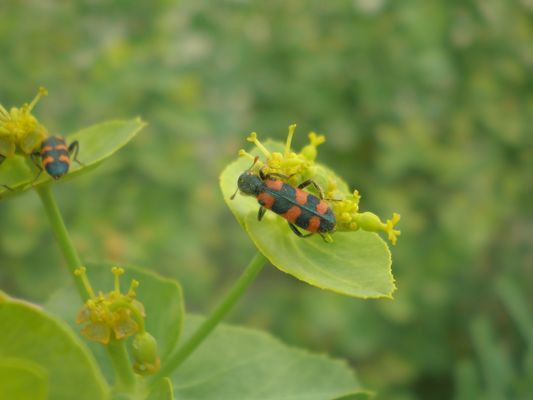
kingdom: Animalia
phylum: Arthropoda
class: Insecta
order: Coleoptera
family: Cleridae
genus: Trichodes
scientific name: Trichodes leucopsideus
